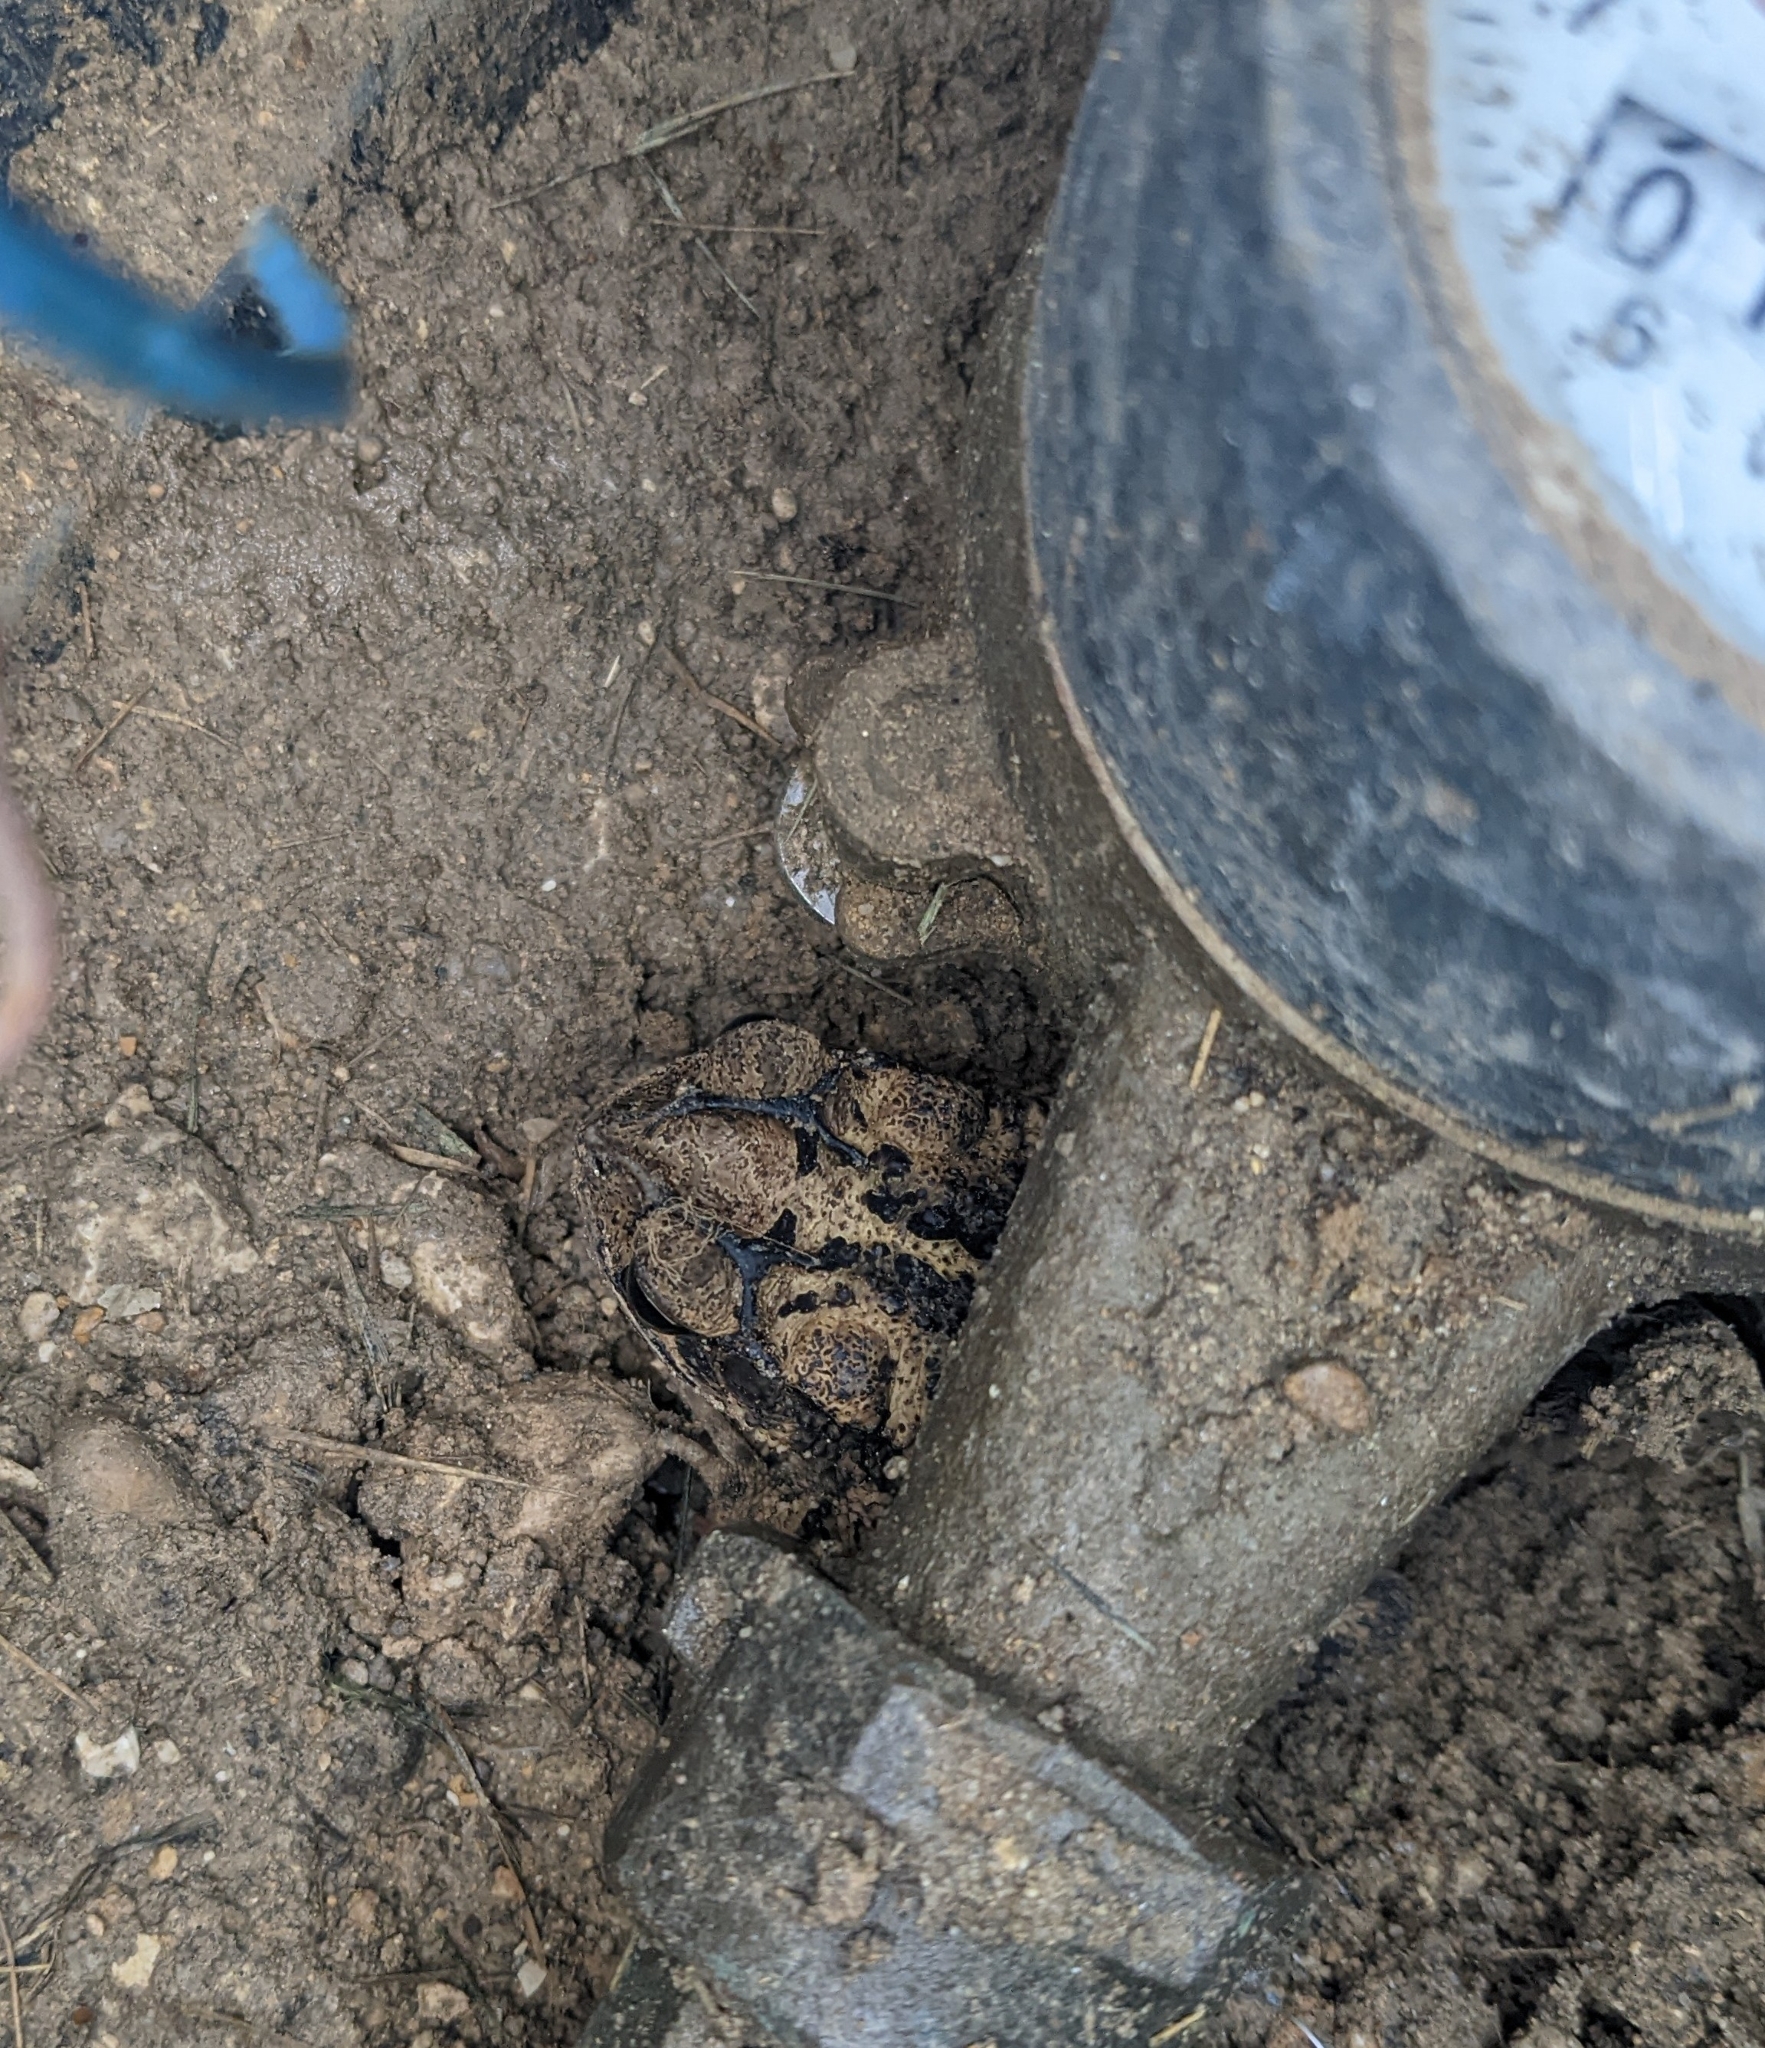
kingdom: Animalia
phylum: Chordata
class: Amphibia
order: Anura
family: Bufonidae
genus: Incilius
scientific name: Incilius nebulifer
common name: Gulf coast toad
